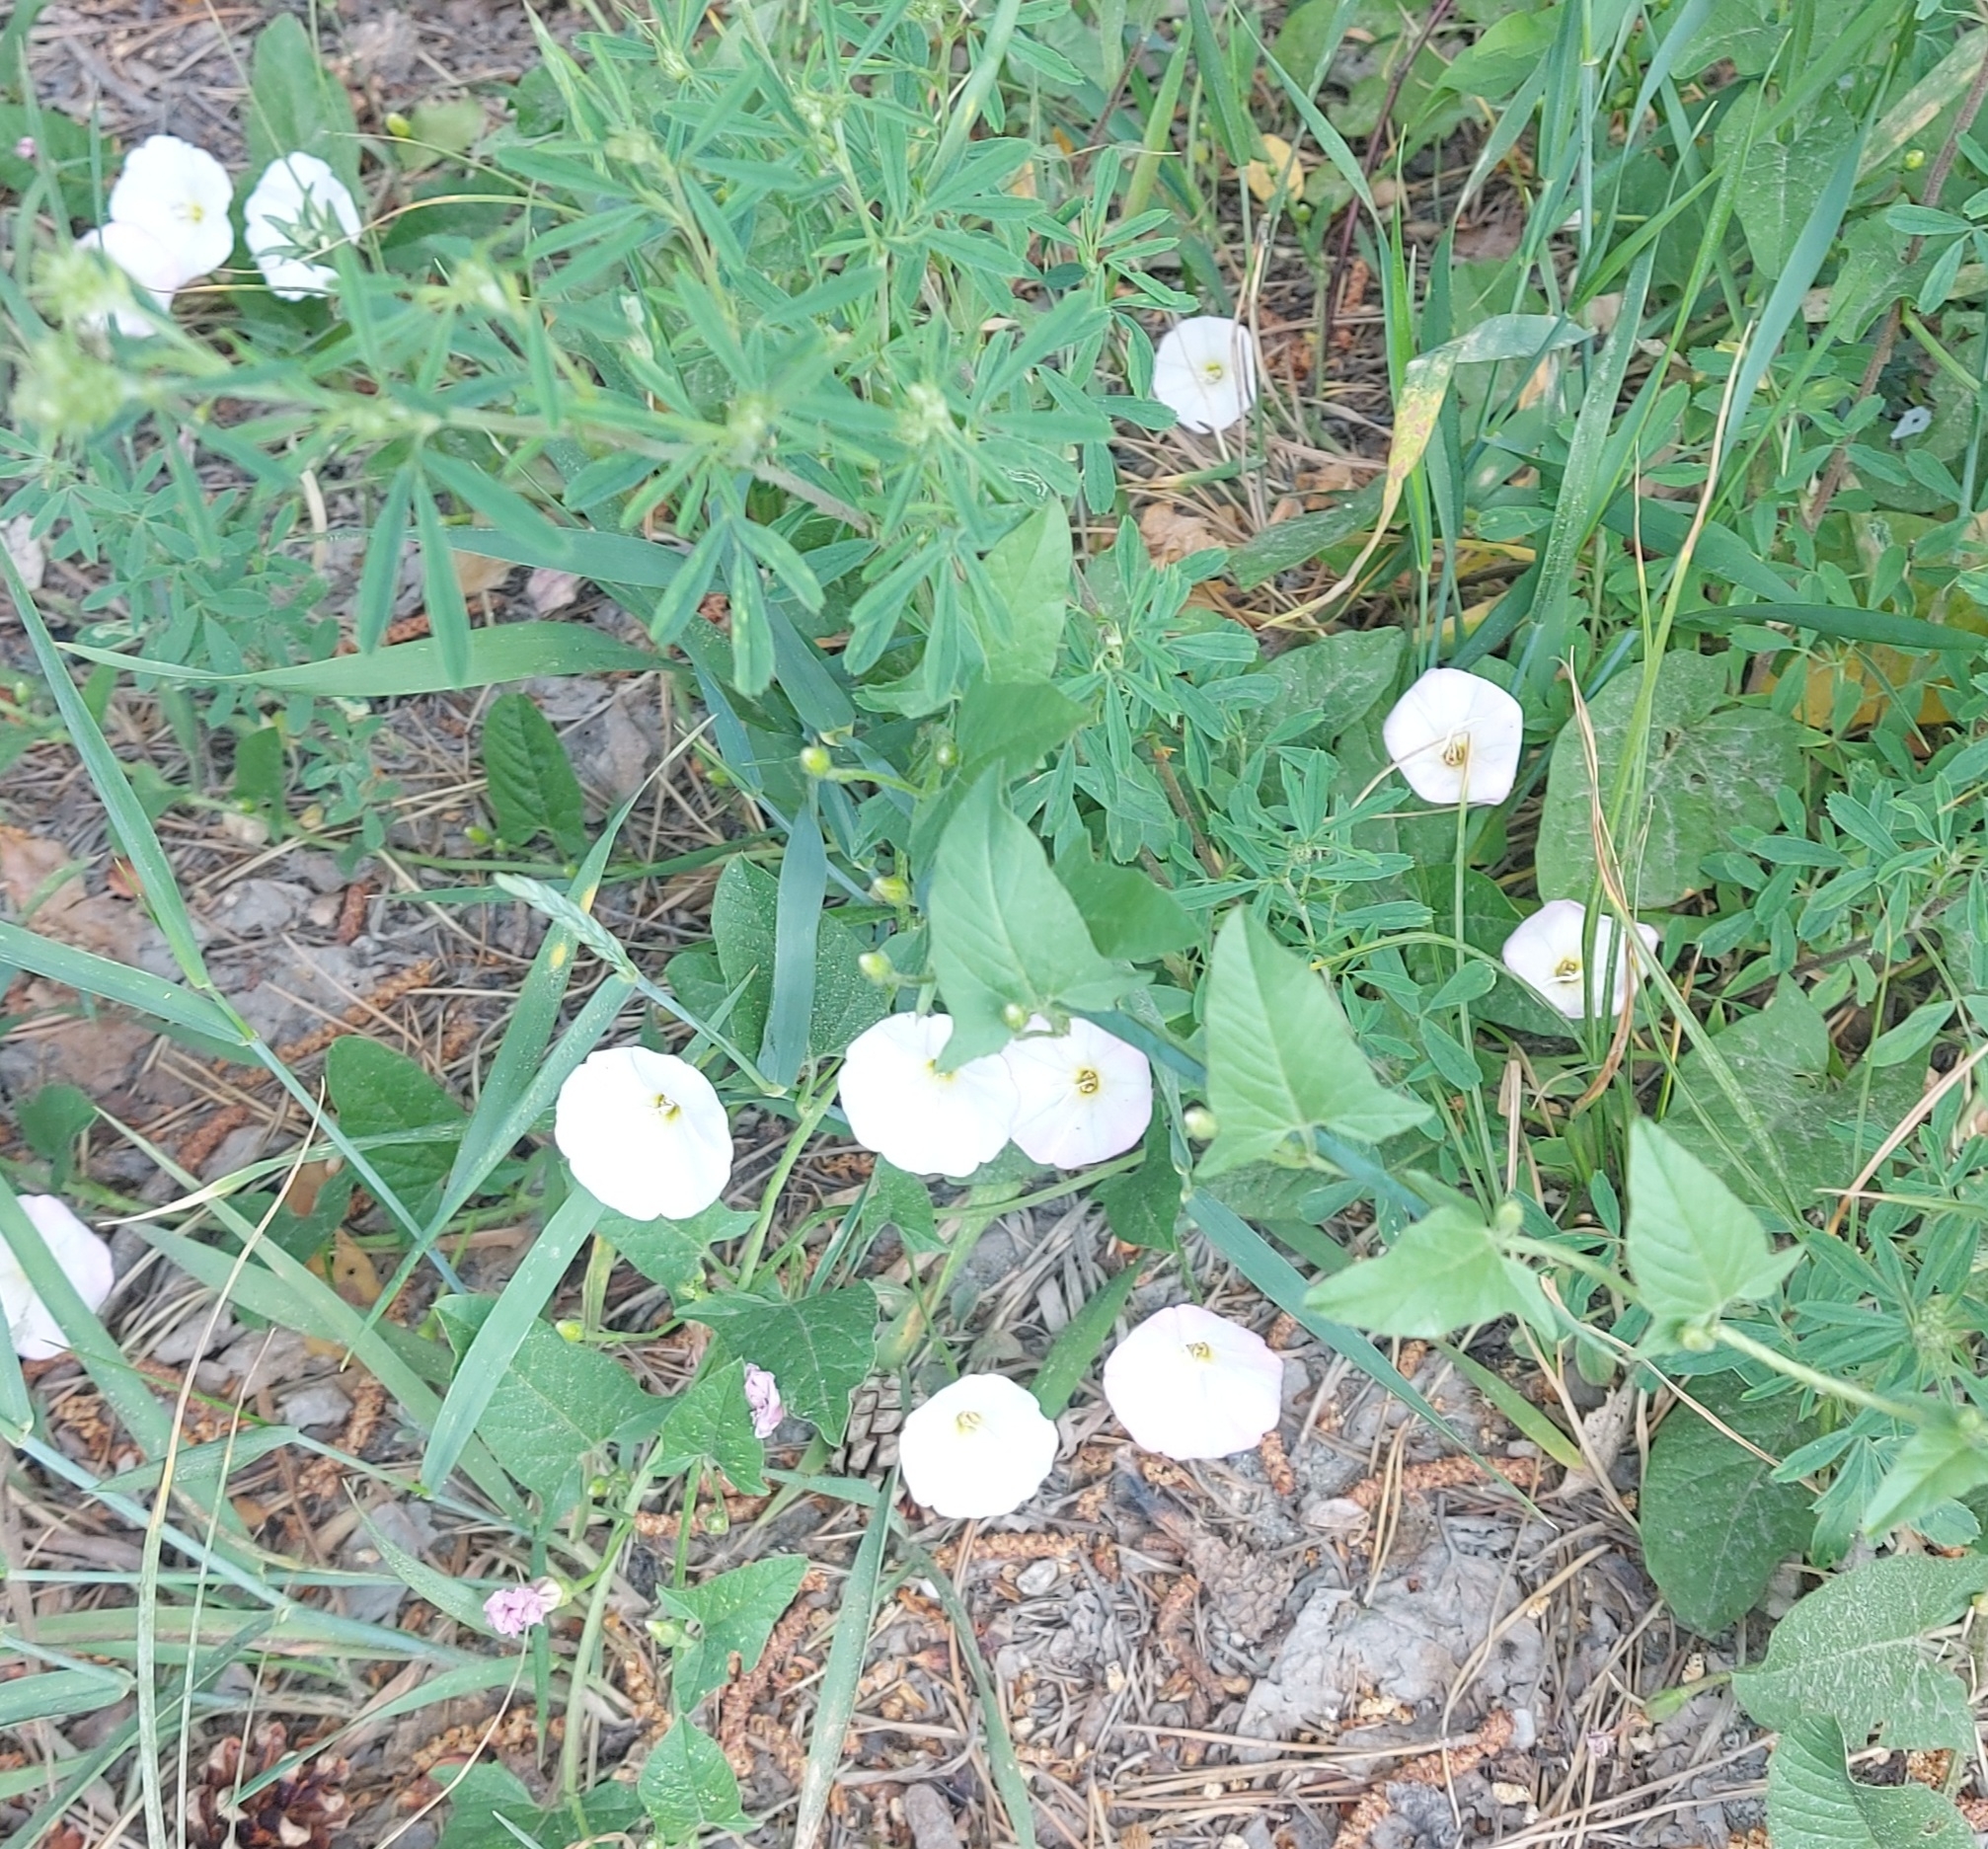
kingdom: Plantae
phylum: Tracheophyta
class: Magnoliopsida
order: Solanales
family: Convolvulaceae
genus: Convolvulus
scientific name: Convolvulus arvensis
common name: Field bindweed
